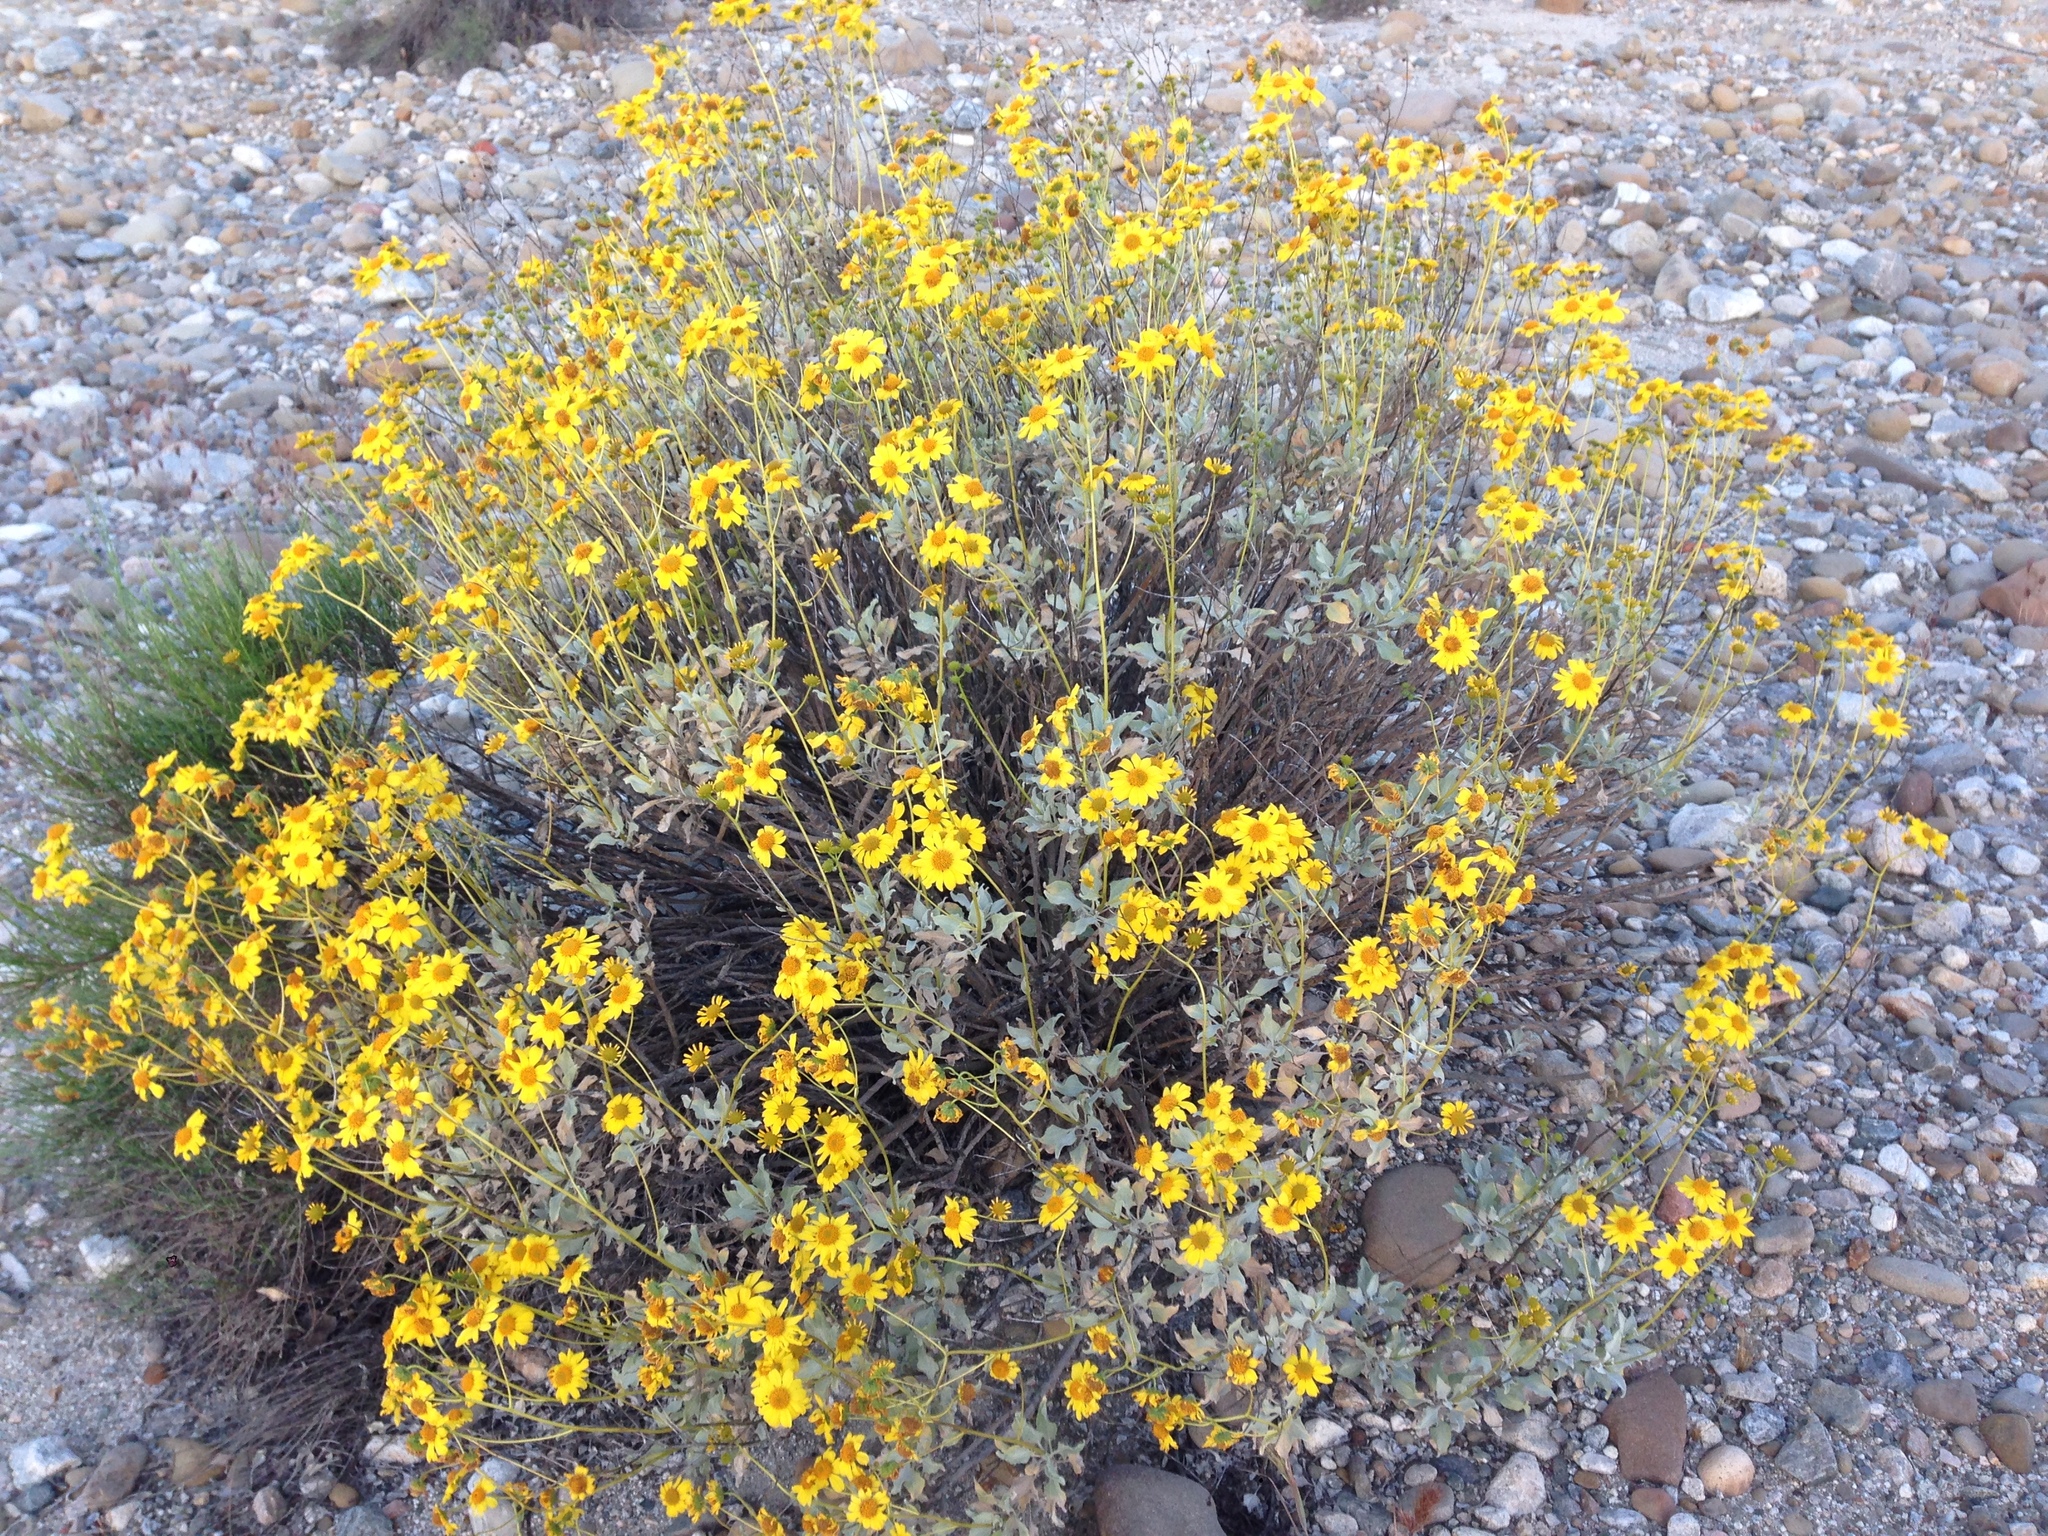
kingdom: Plantae
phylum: Tracheophyta
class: Magnoliopsida
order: Asterales
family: Asteraceae
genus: Encelia
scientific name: Encelia farinosa
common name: Brittlebush
